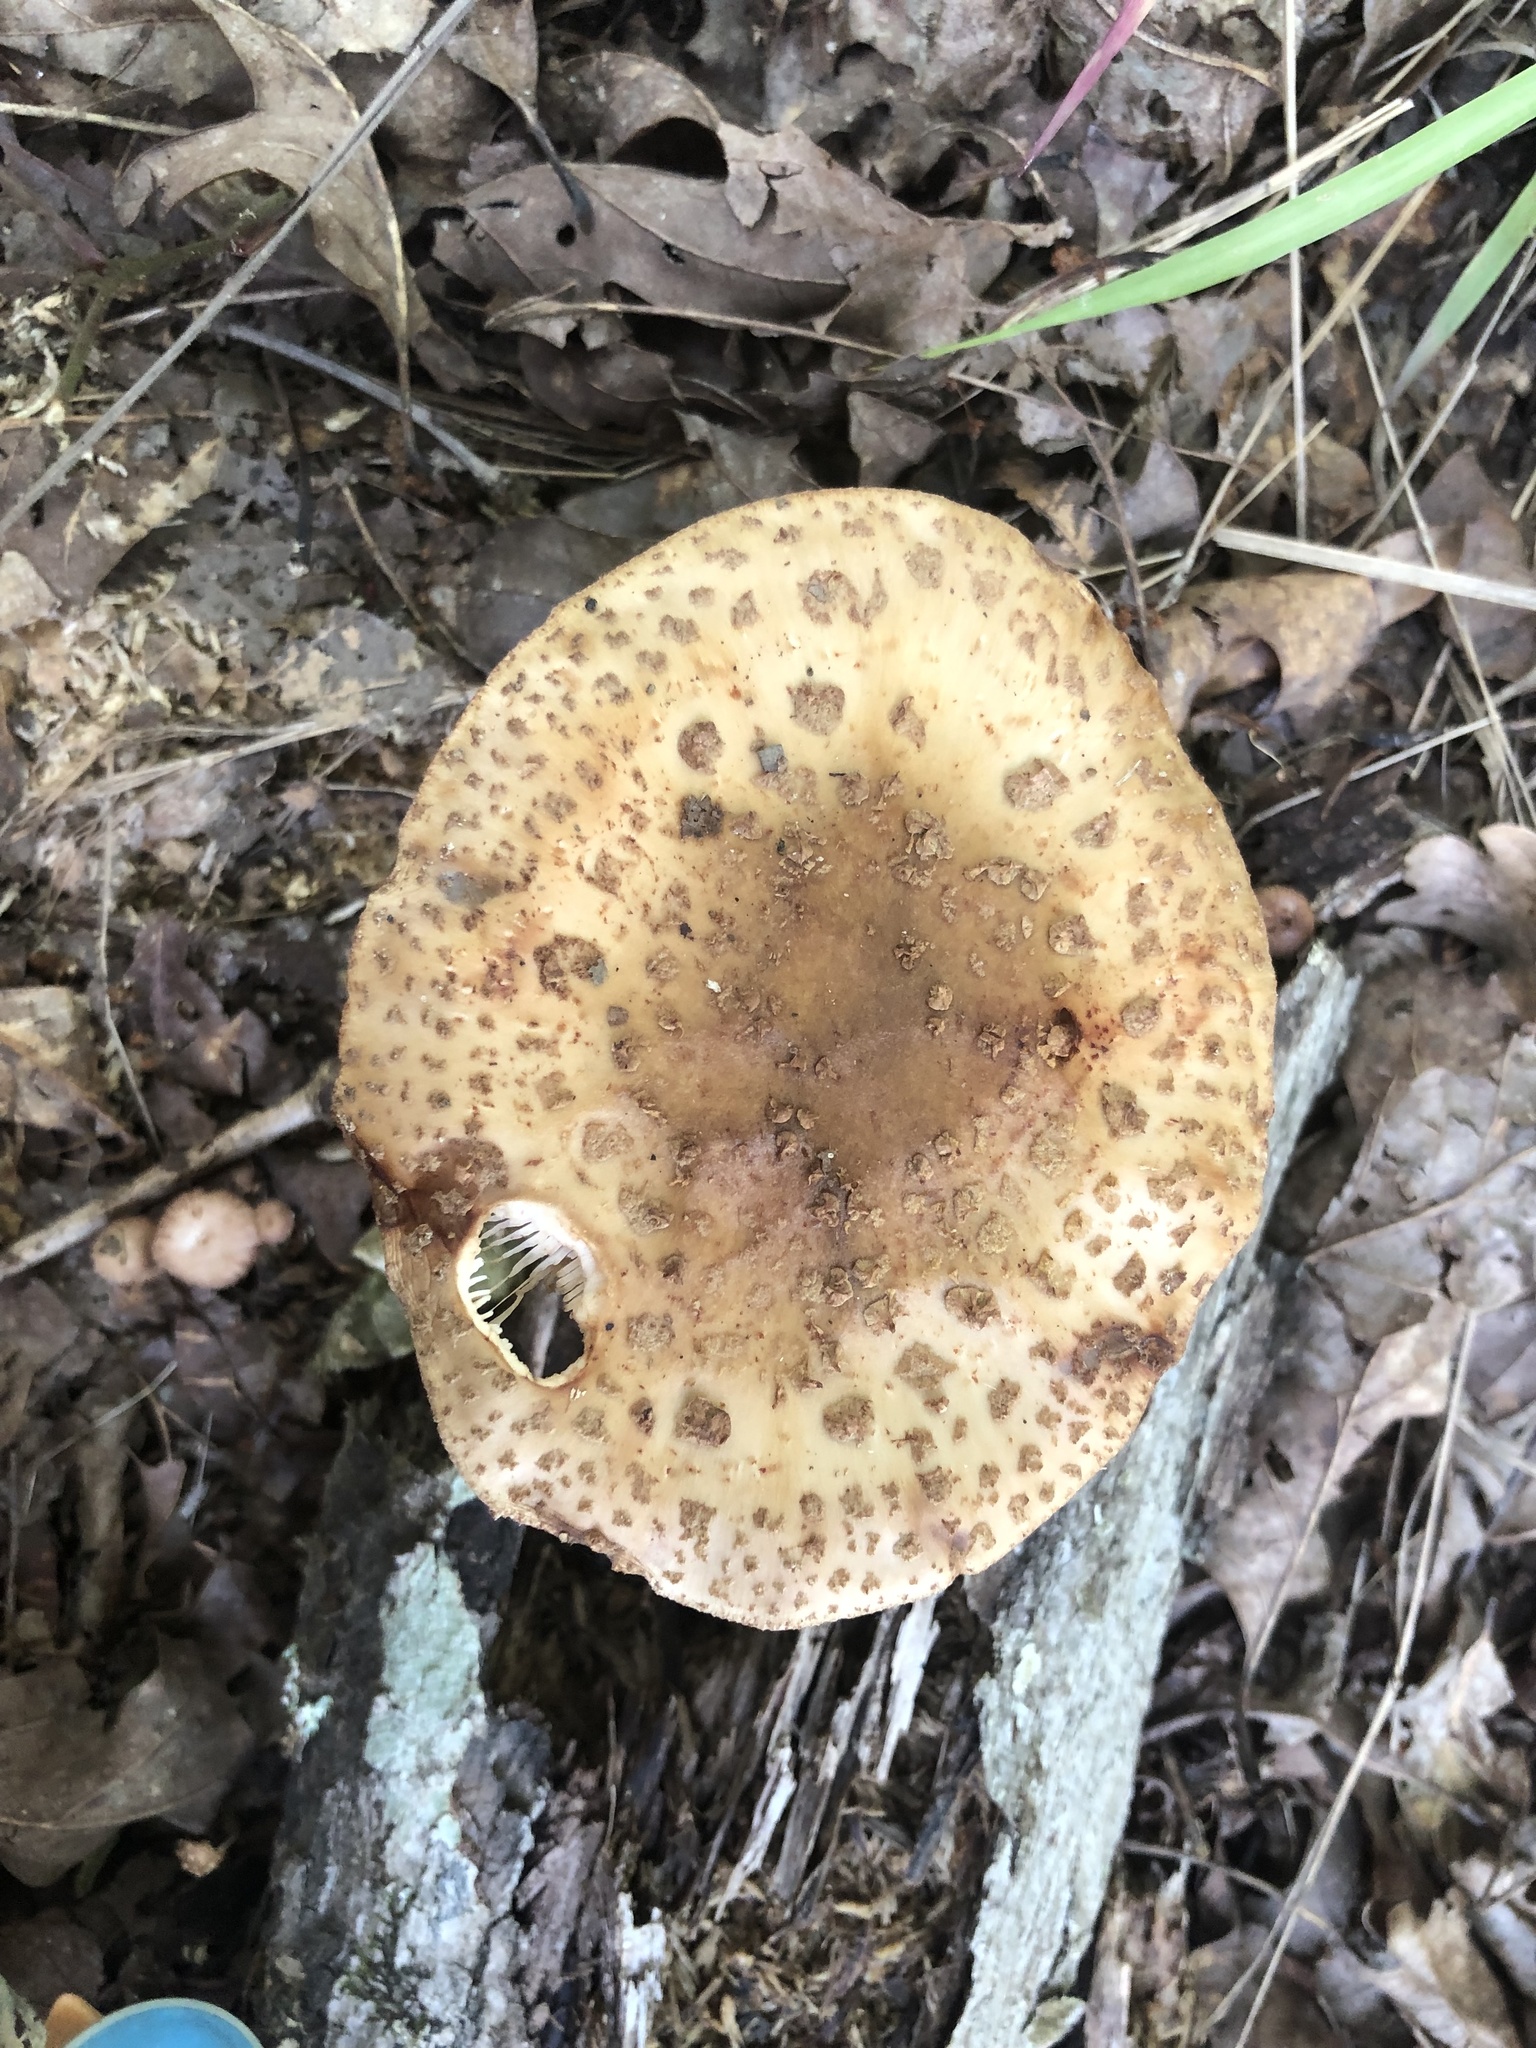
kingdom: Fungi
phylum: Basidiomycota
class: Agaricomycetes
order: Agaricales
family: Amanitaceae
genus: Amanita
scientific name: Amanita
